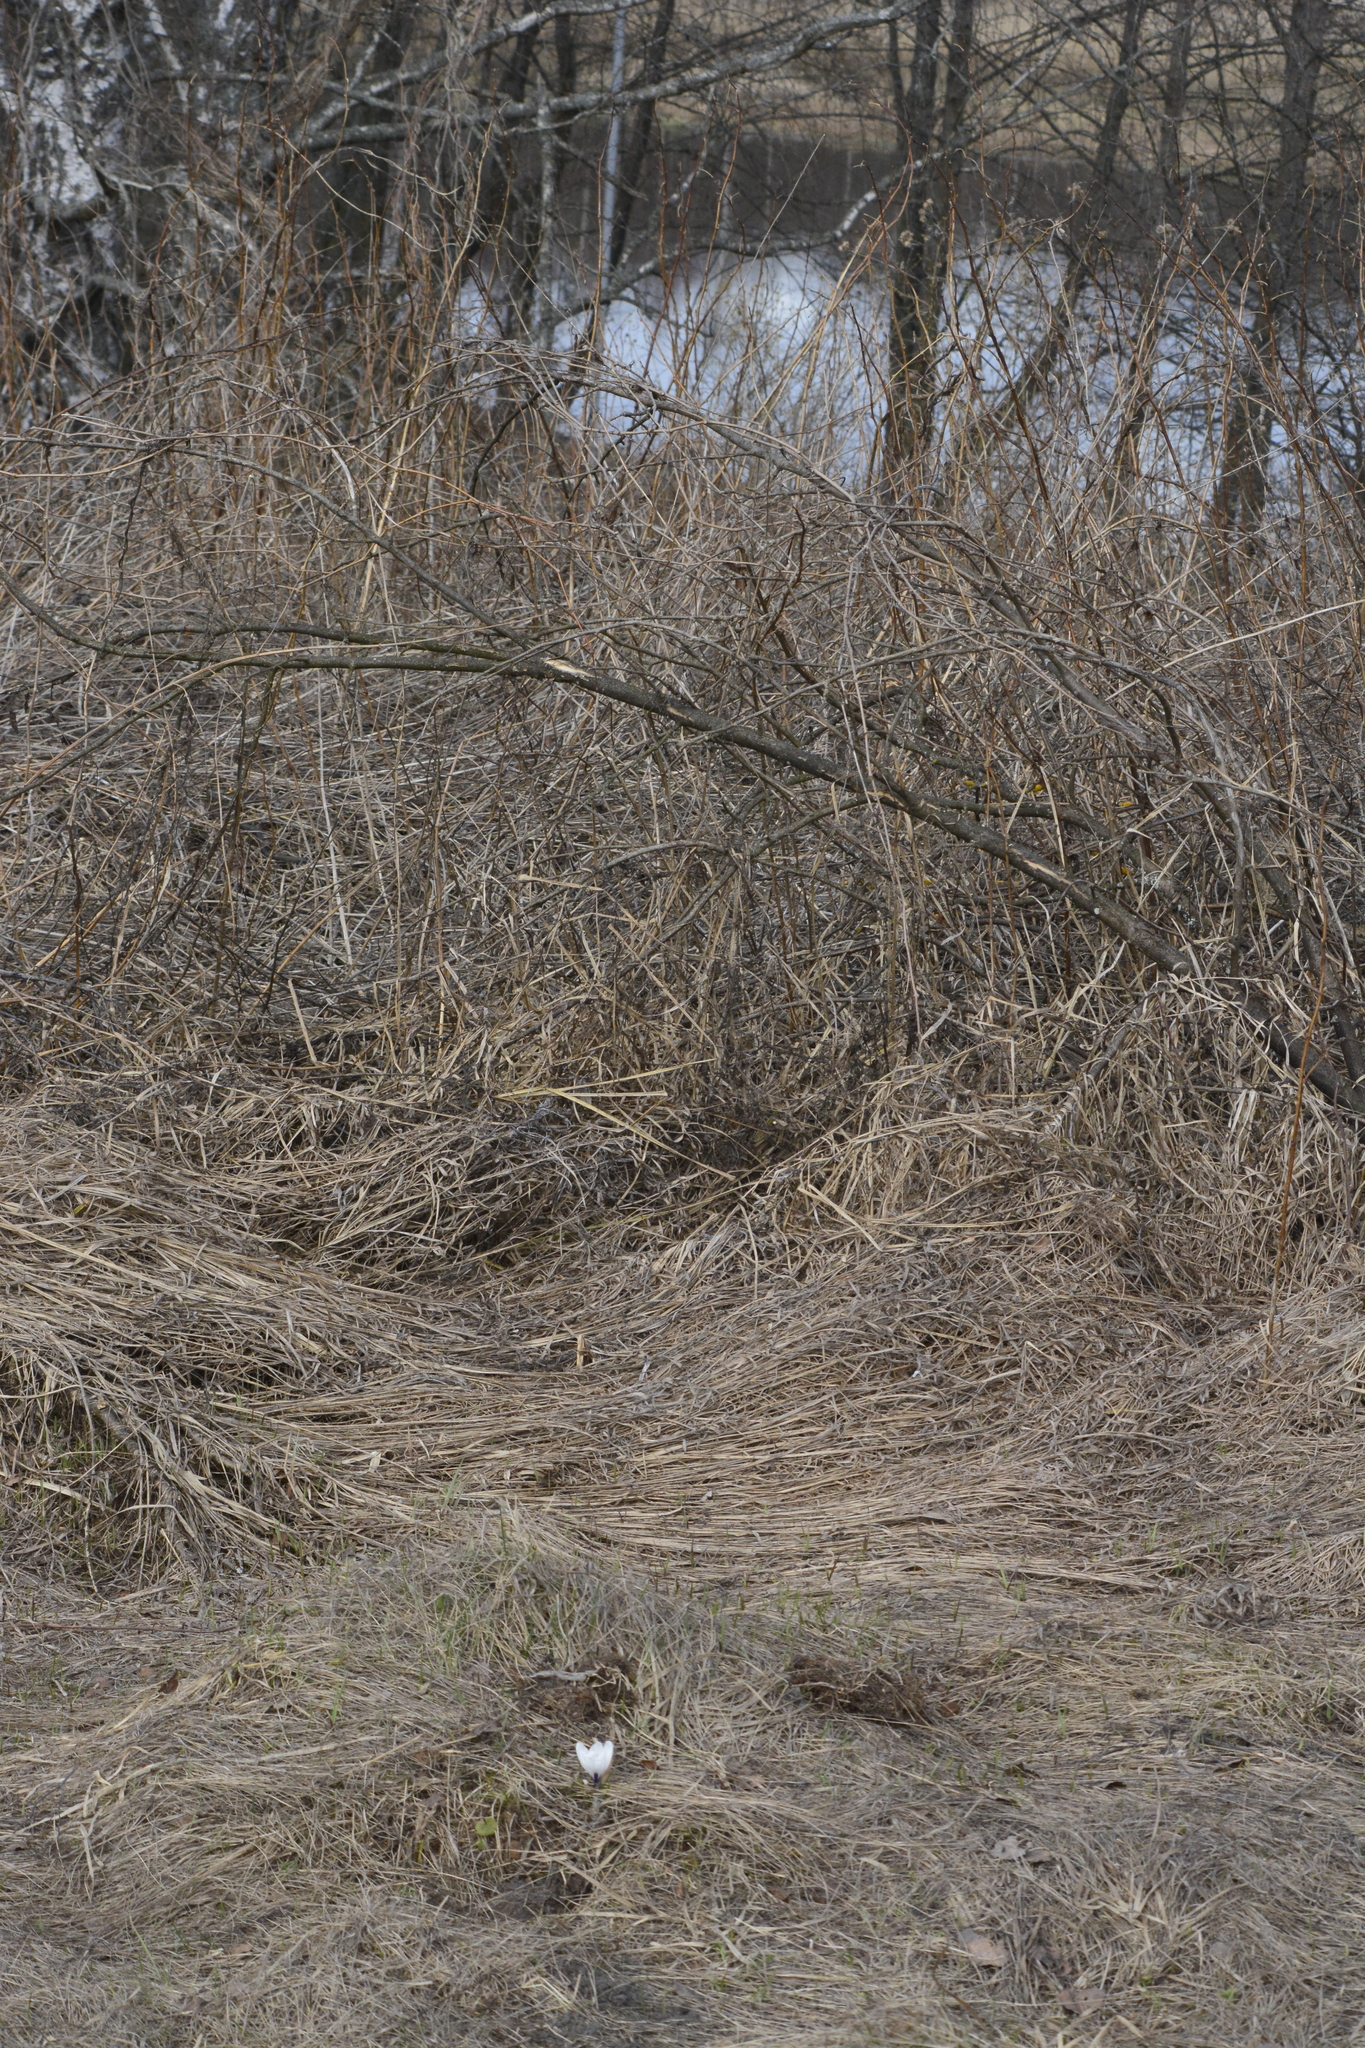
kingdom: Plantae
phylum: Tracheophyta
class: Liliopsida
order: Asparagales
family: Iridaceae
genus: Crocus
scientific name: Crocus vernus
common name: Spring crocus
